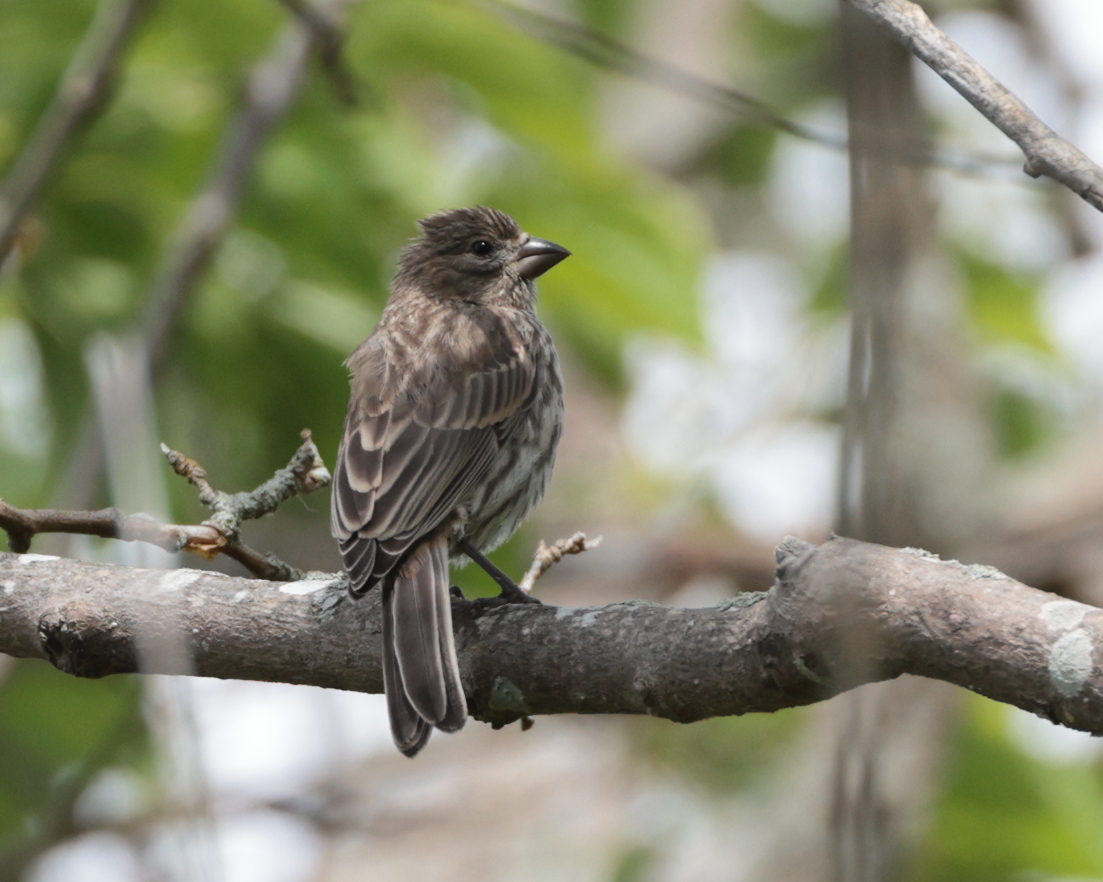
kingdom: Animalia
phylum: Chordata
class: Aves
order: Passeriformes
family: Fringillidae
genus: Haemorhous
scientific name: Haemorhous mexicanus
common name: House finch
